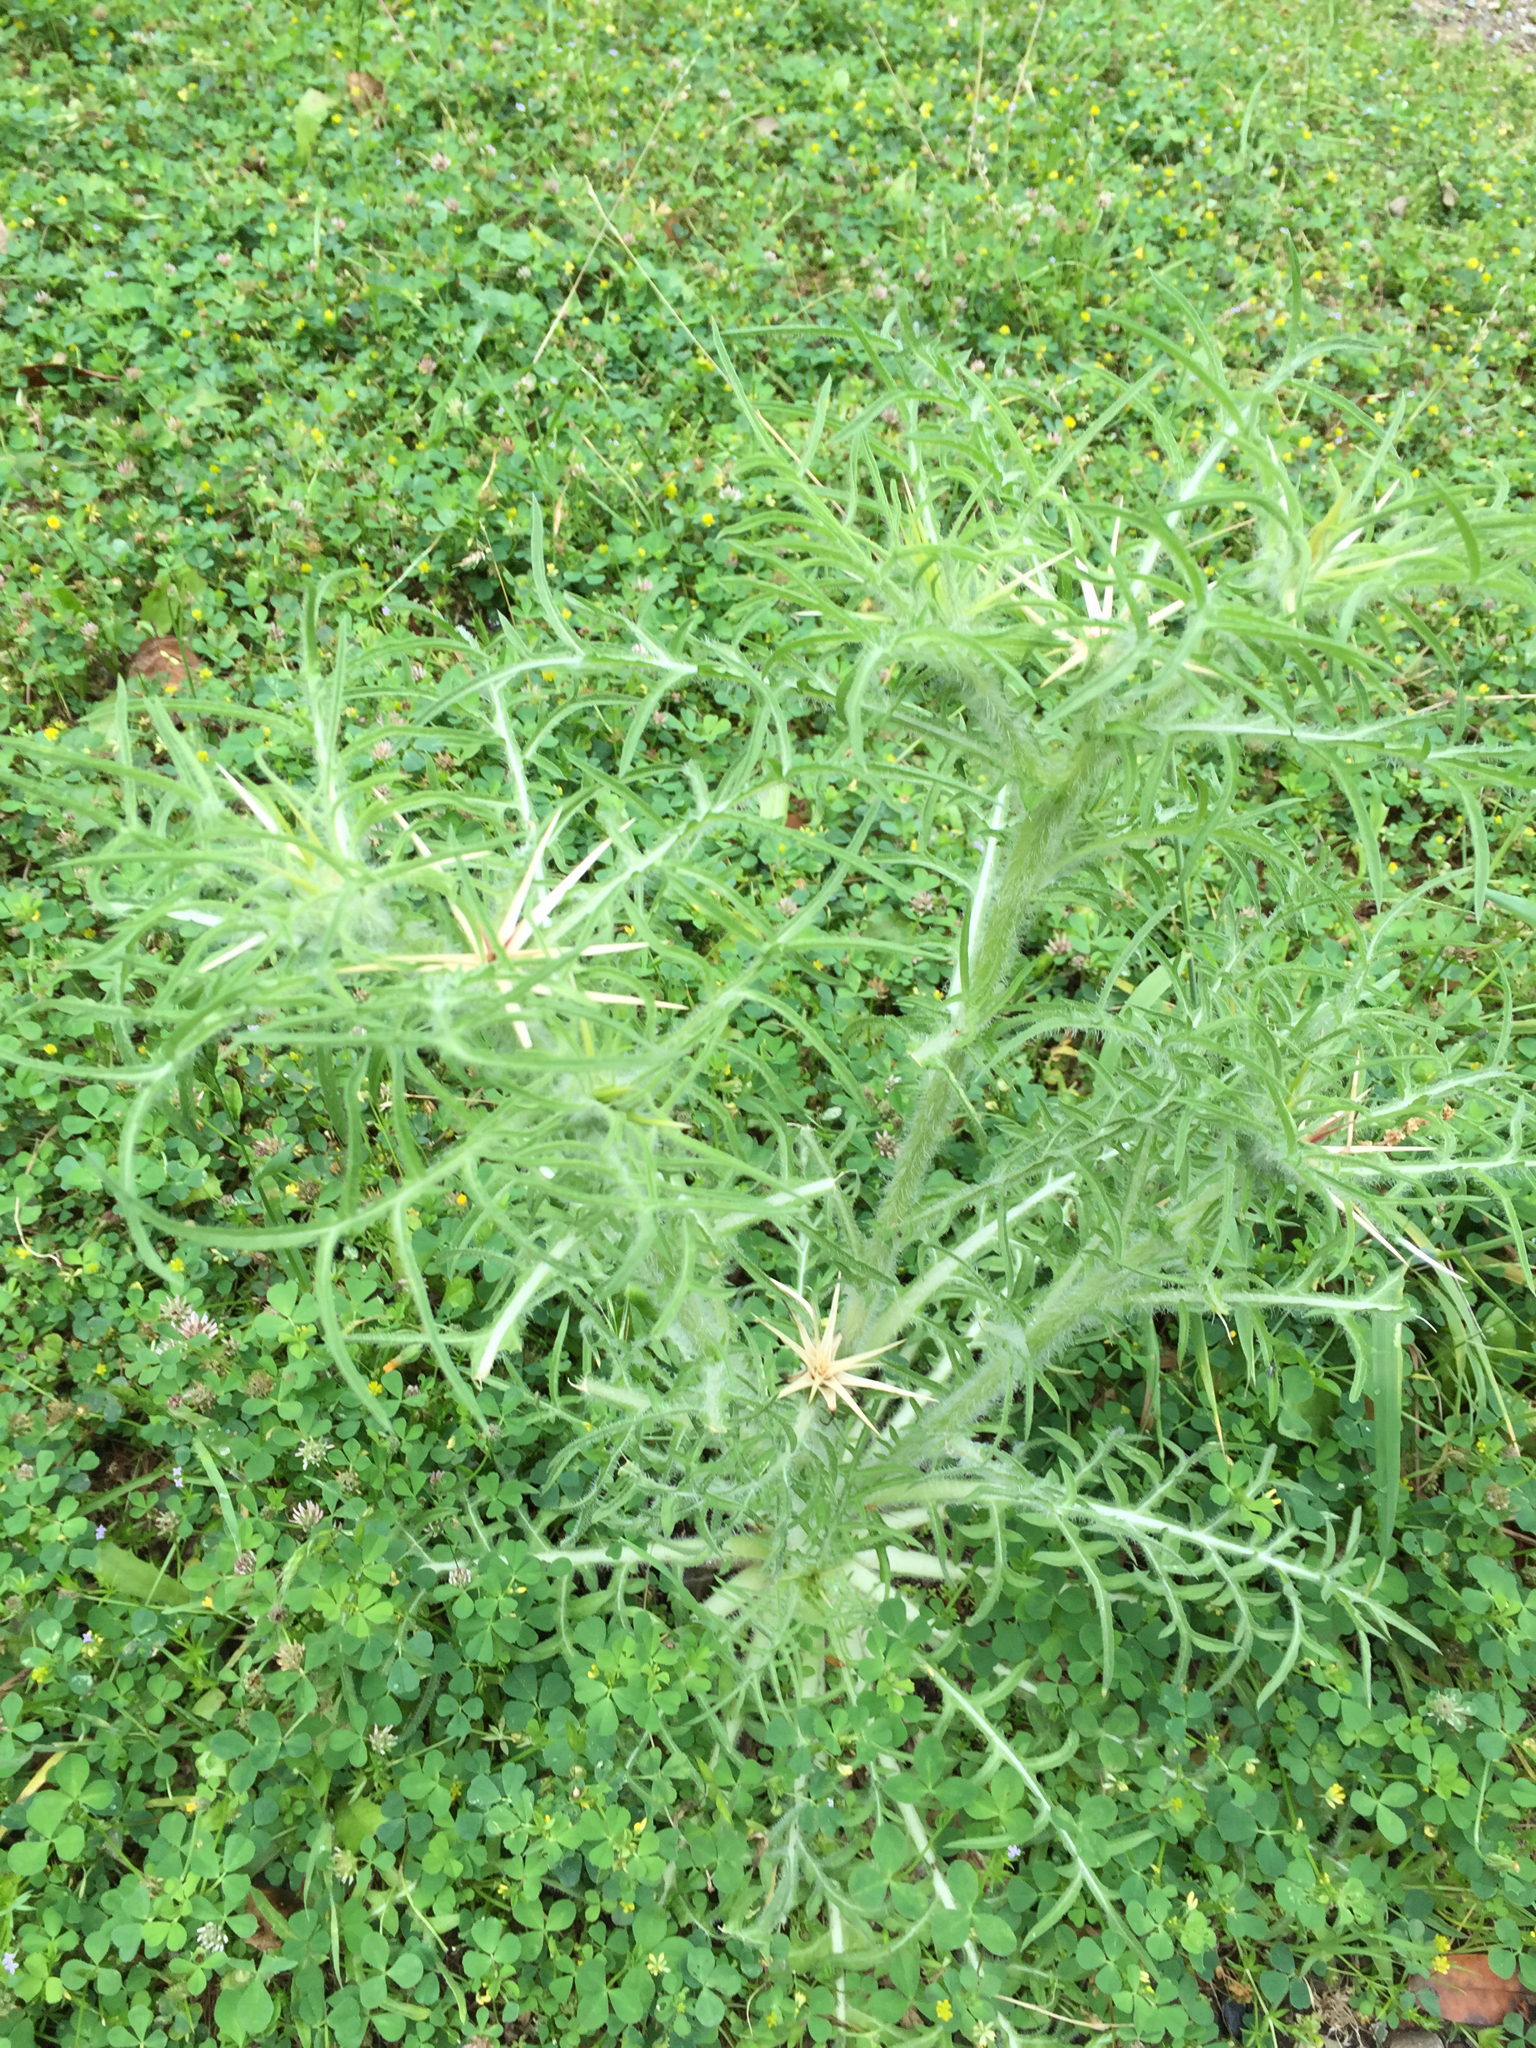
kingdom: Plantae
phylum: Tracheophyta
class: Magnoliopsida
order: Asterales
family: Asteraceae
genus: Centaurea
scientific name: Centaurea calcitrapa
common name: Red star-thistle
